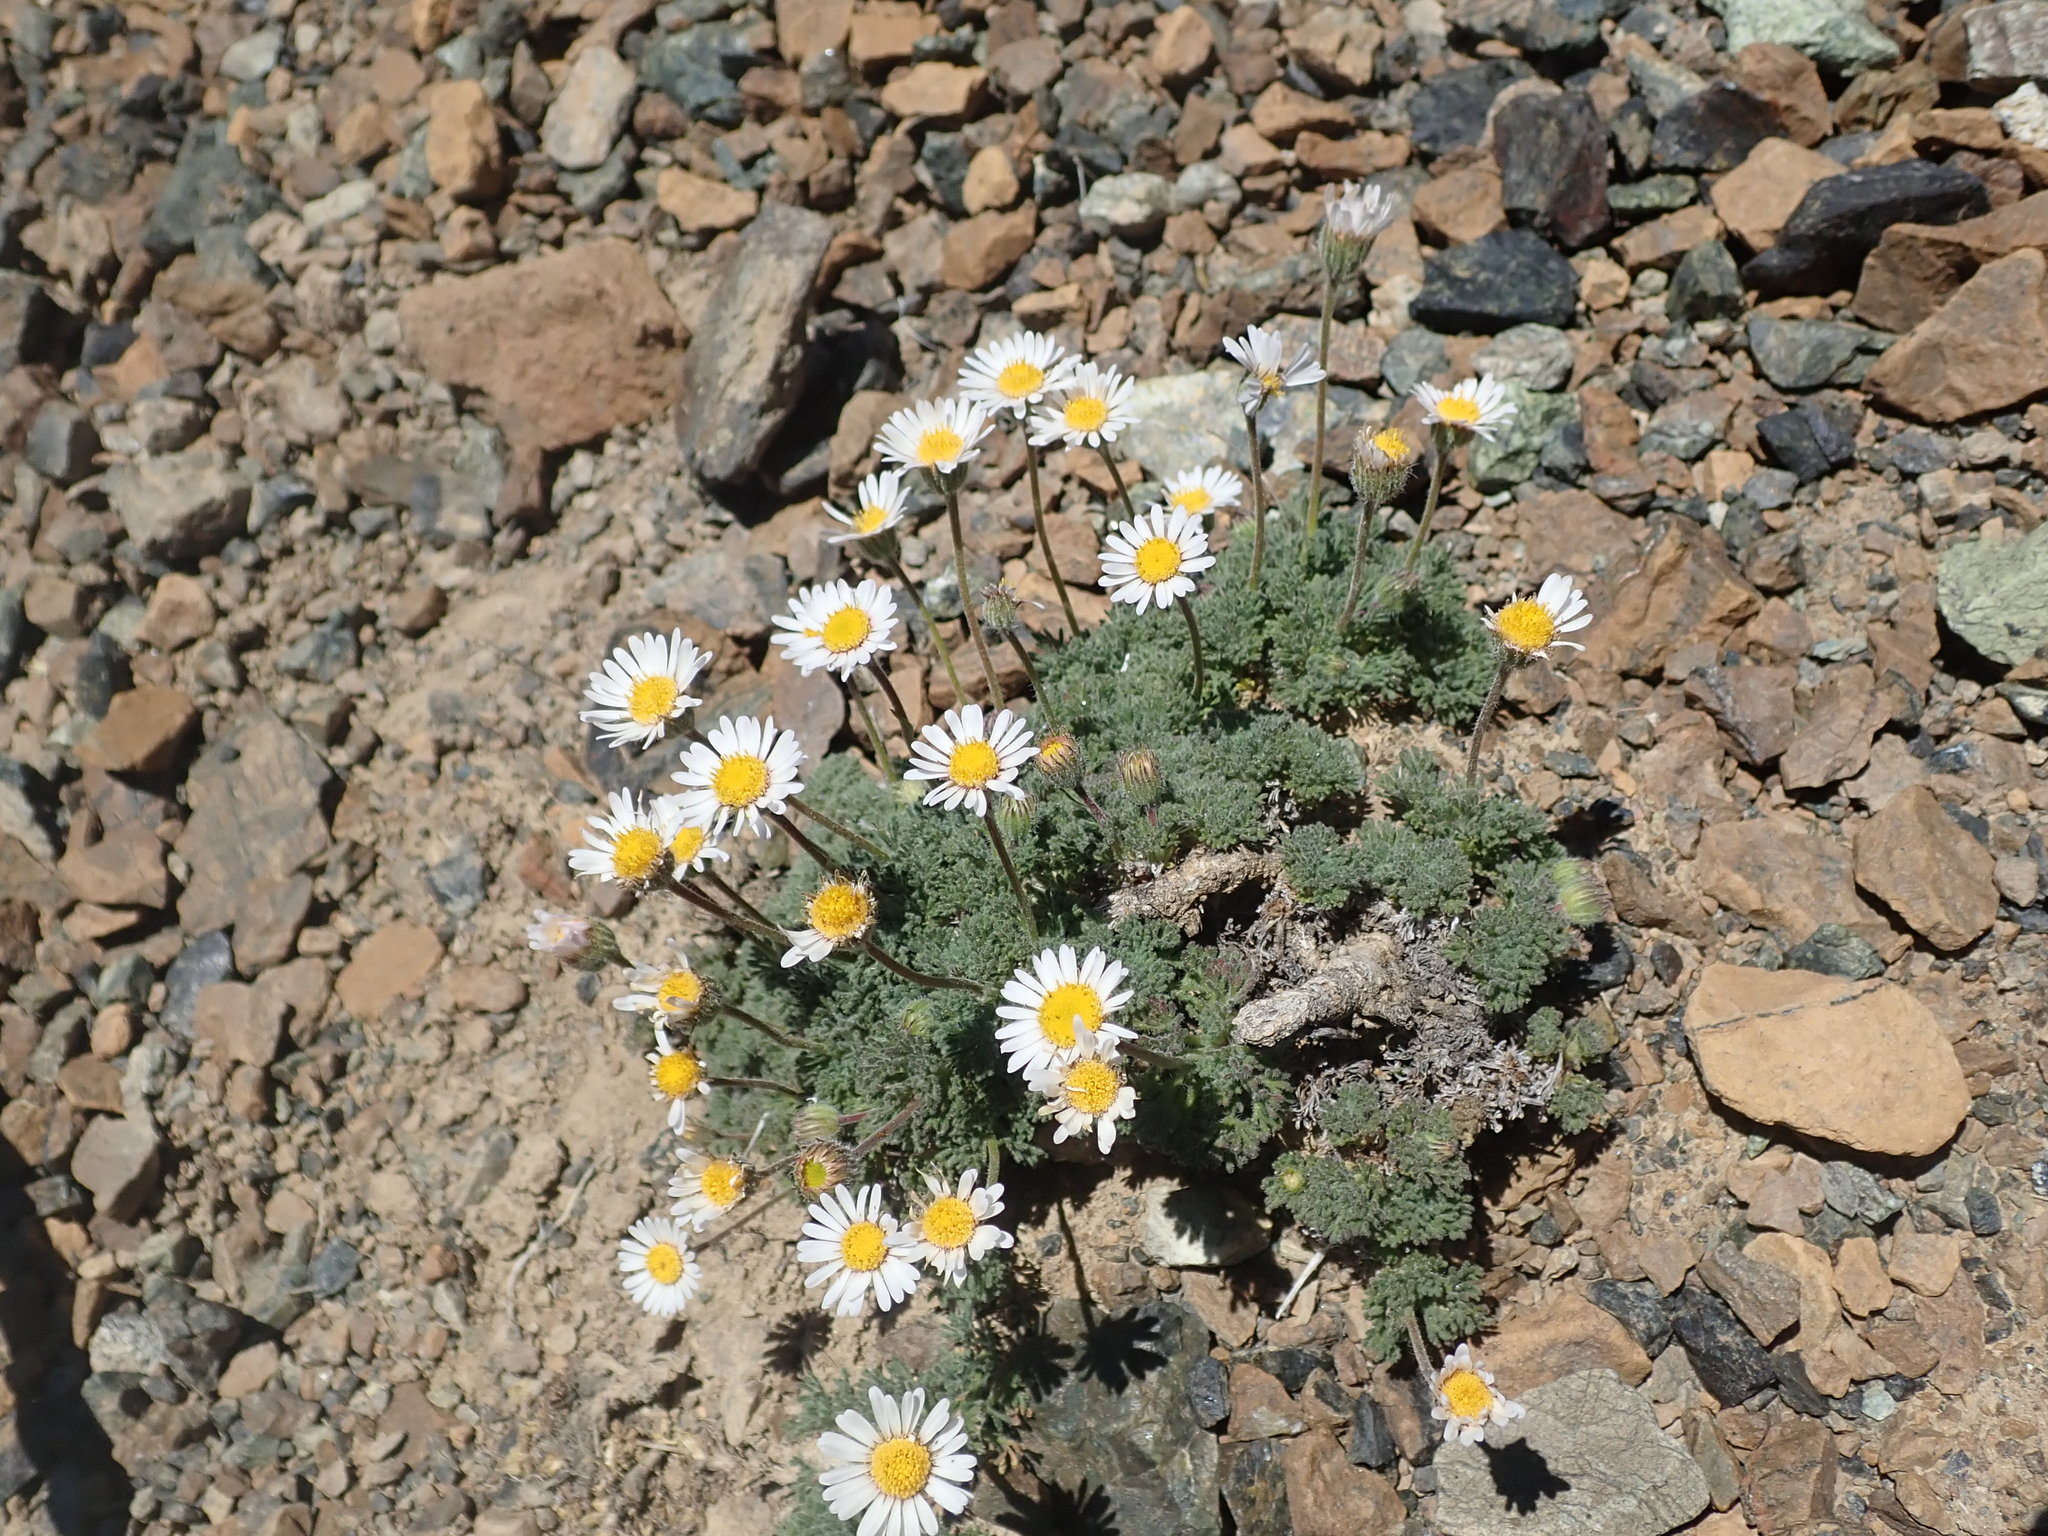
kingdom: Plantae
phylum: Tracheophyta
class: Magnoliopsida
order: Asterales
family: Asteraceae
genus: Erigeron
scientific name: Erigeron compositus
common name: Dwarf mountain fleabane
